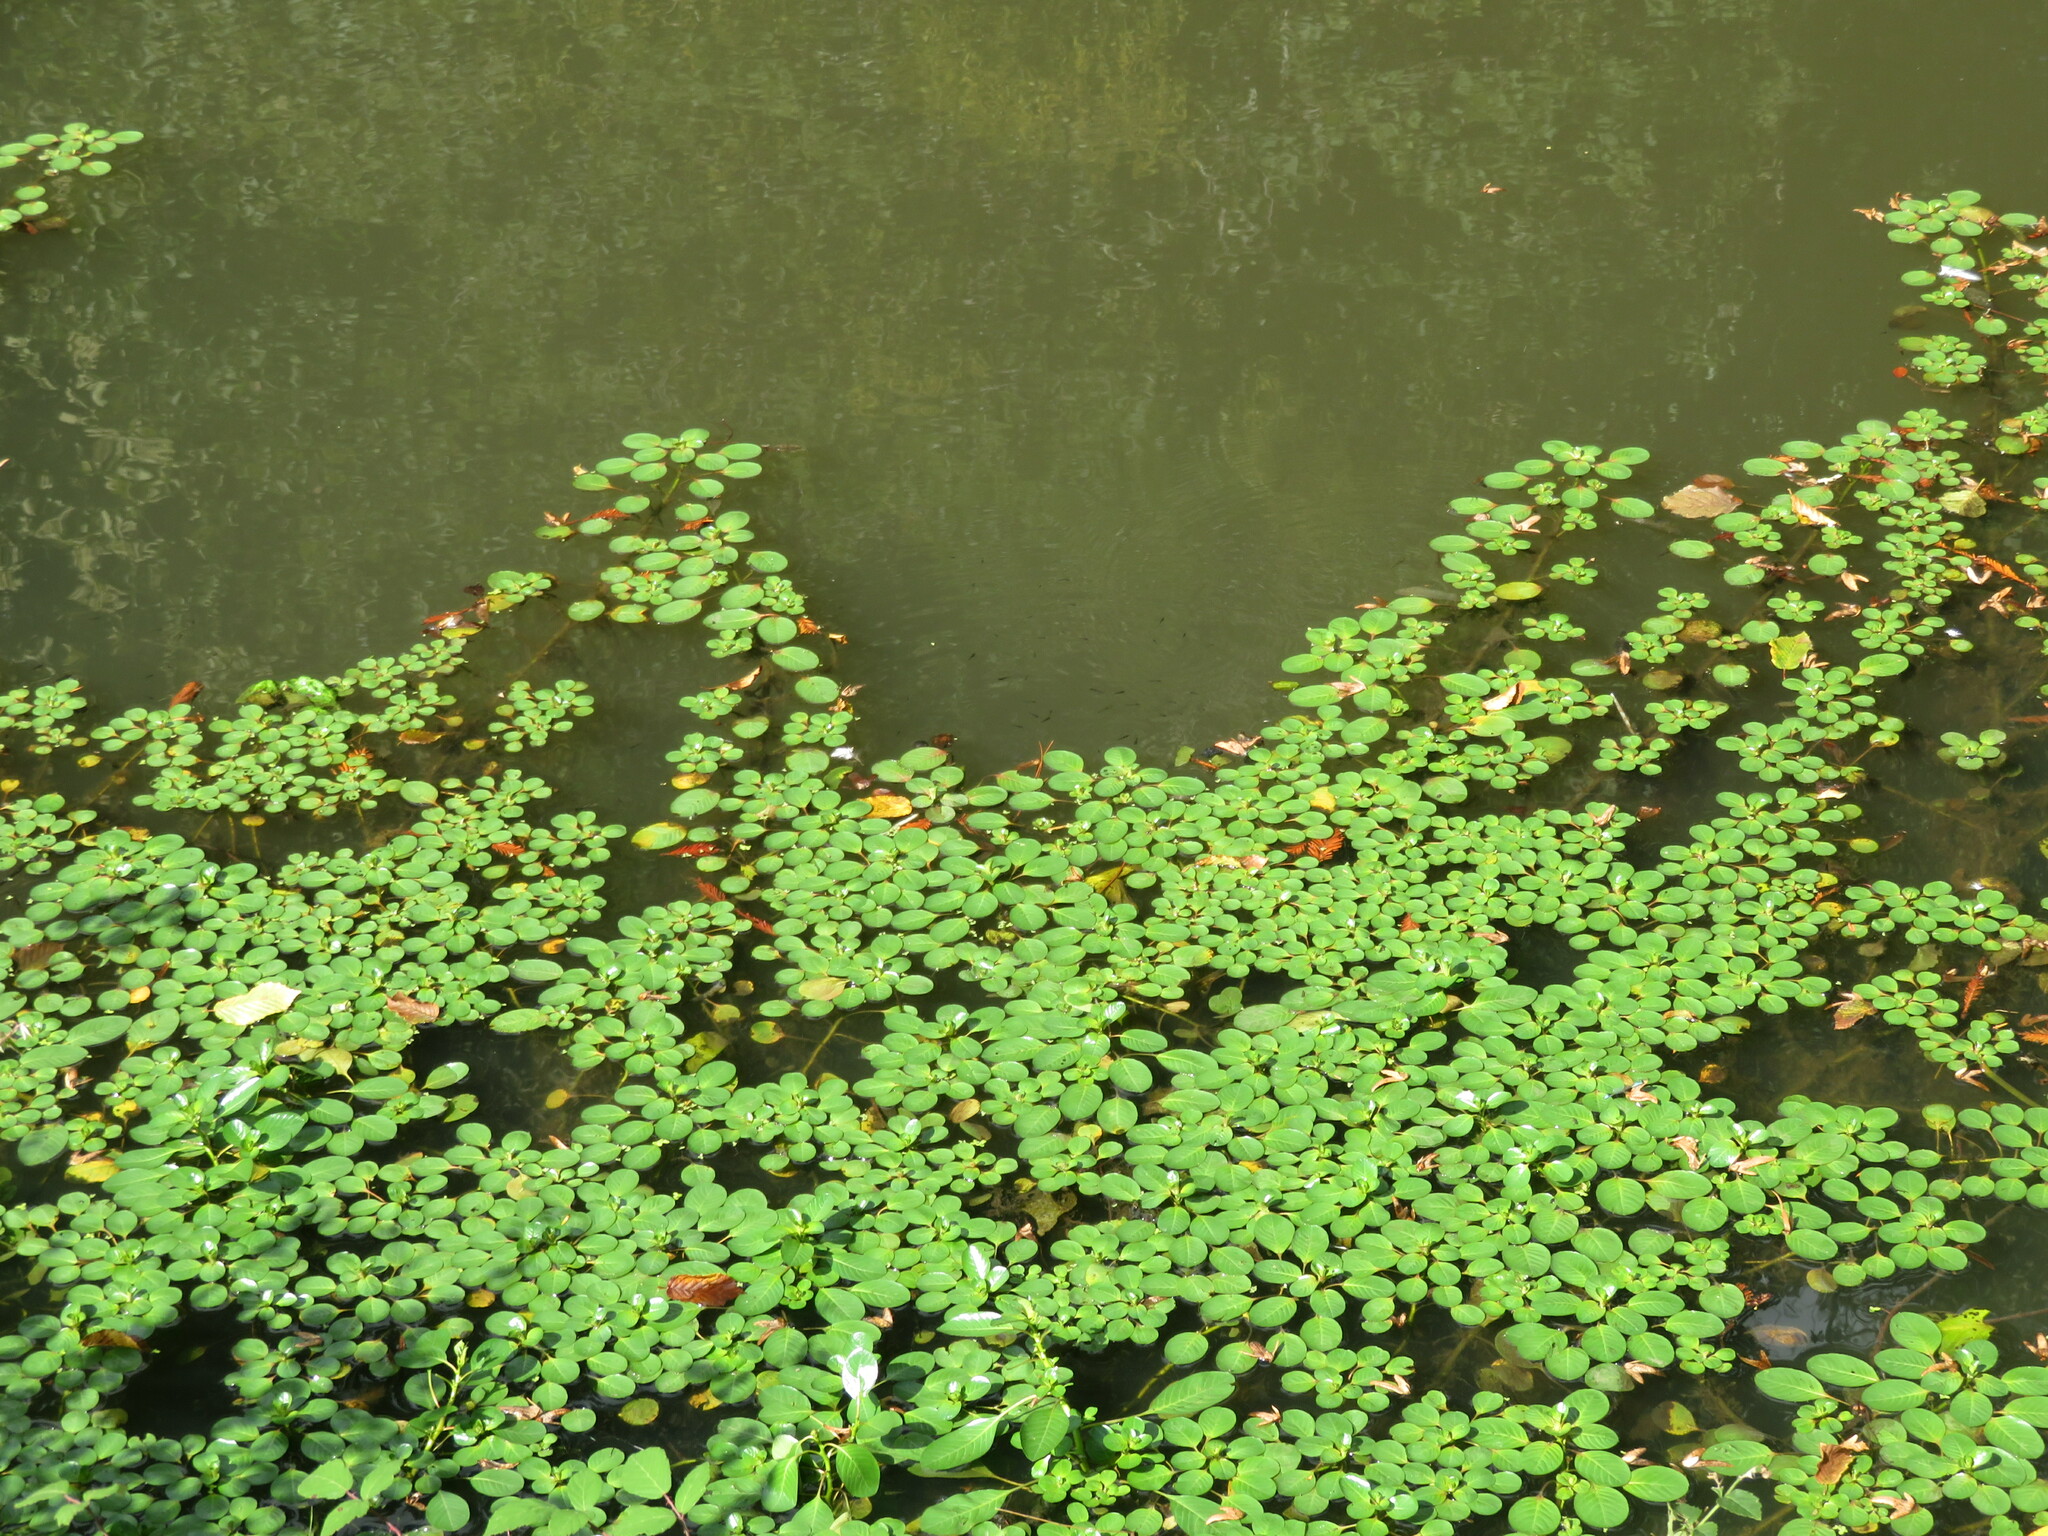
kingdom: Plantae
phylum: Tracheophyta
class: Magnoliopsida
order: Myrtales
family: Onagraceae
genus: Ludwigia
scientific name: Ludwigia peploides
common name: Floating primrose-willow
